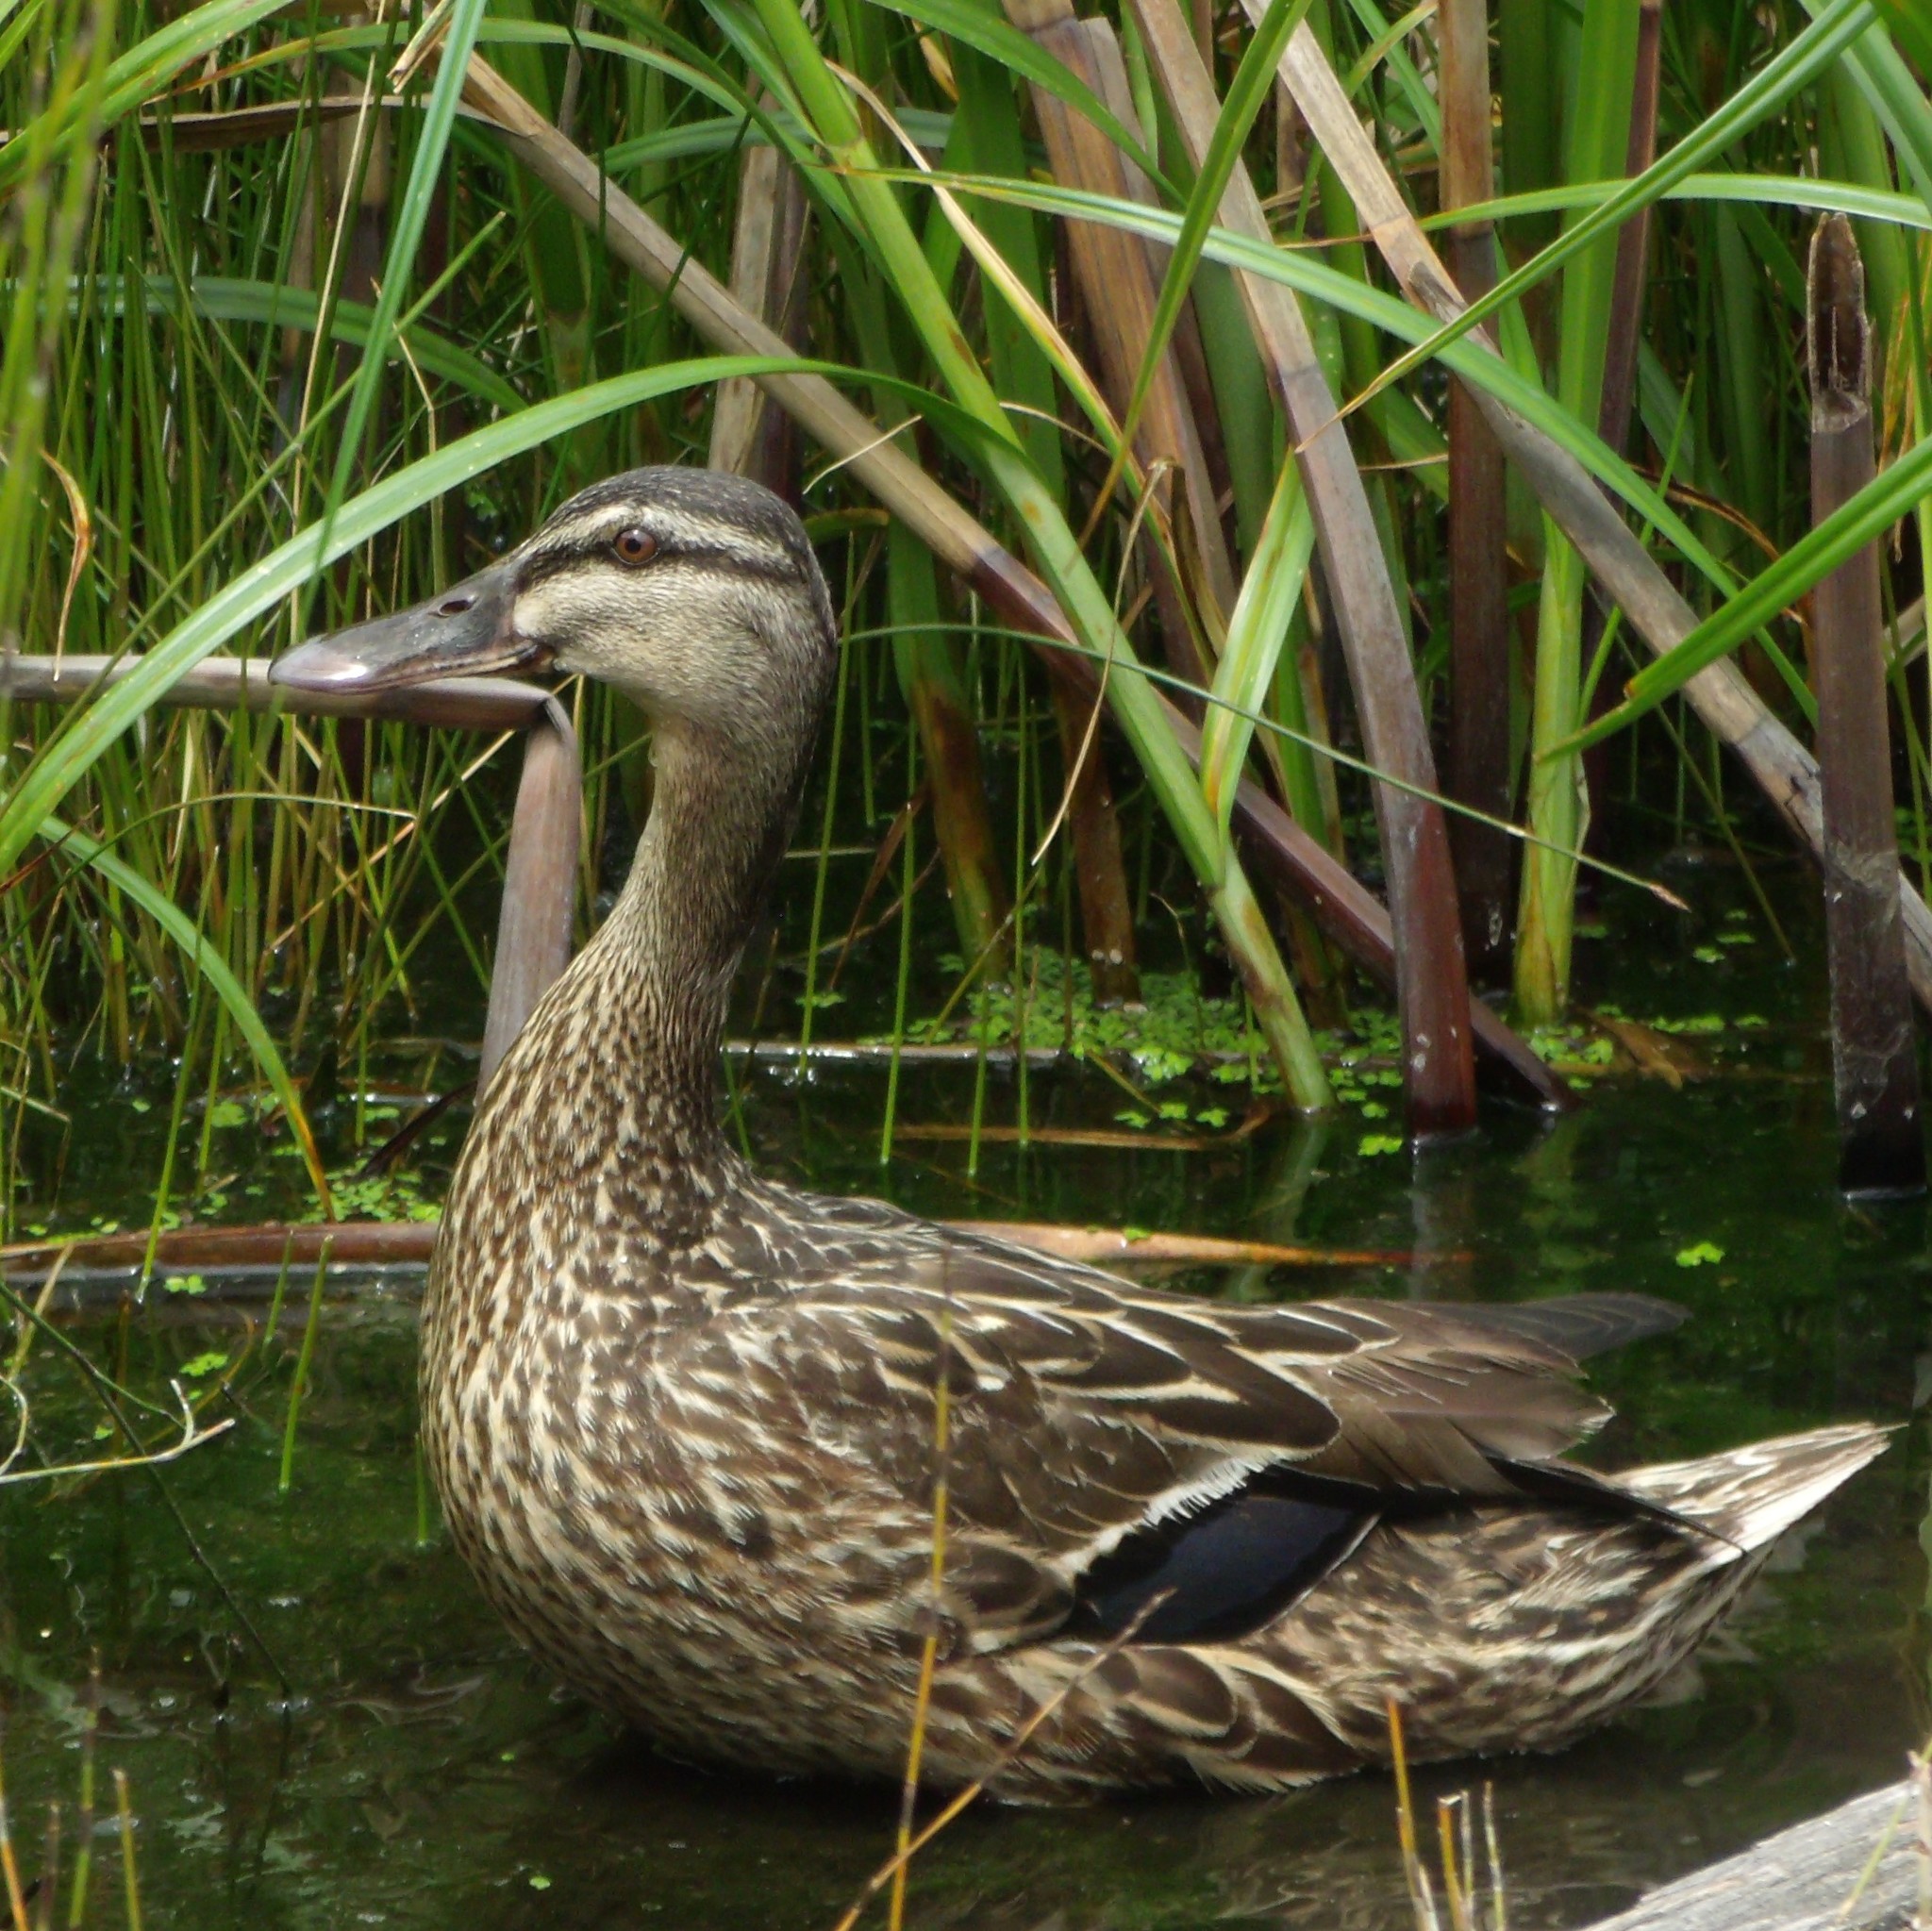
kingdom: Animalia
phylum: Chordata
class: Aves
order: Anseriformes
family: Anatidae
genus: Anas
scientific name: Anas
